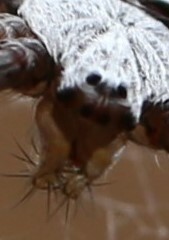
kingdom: Animalia
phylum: Arthropoda
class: Arachnida
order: Araneae
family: Araneidae
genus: Argiope
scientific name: Argiope keyserlingi
